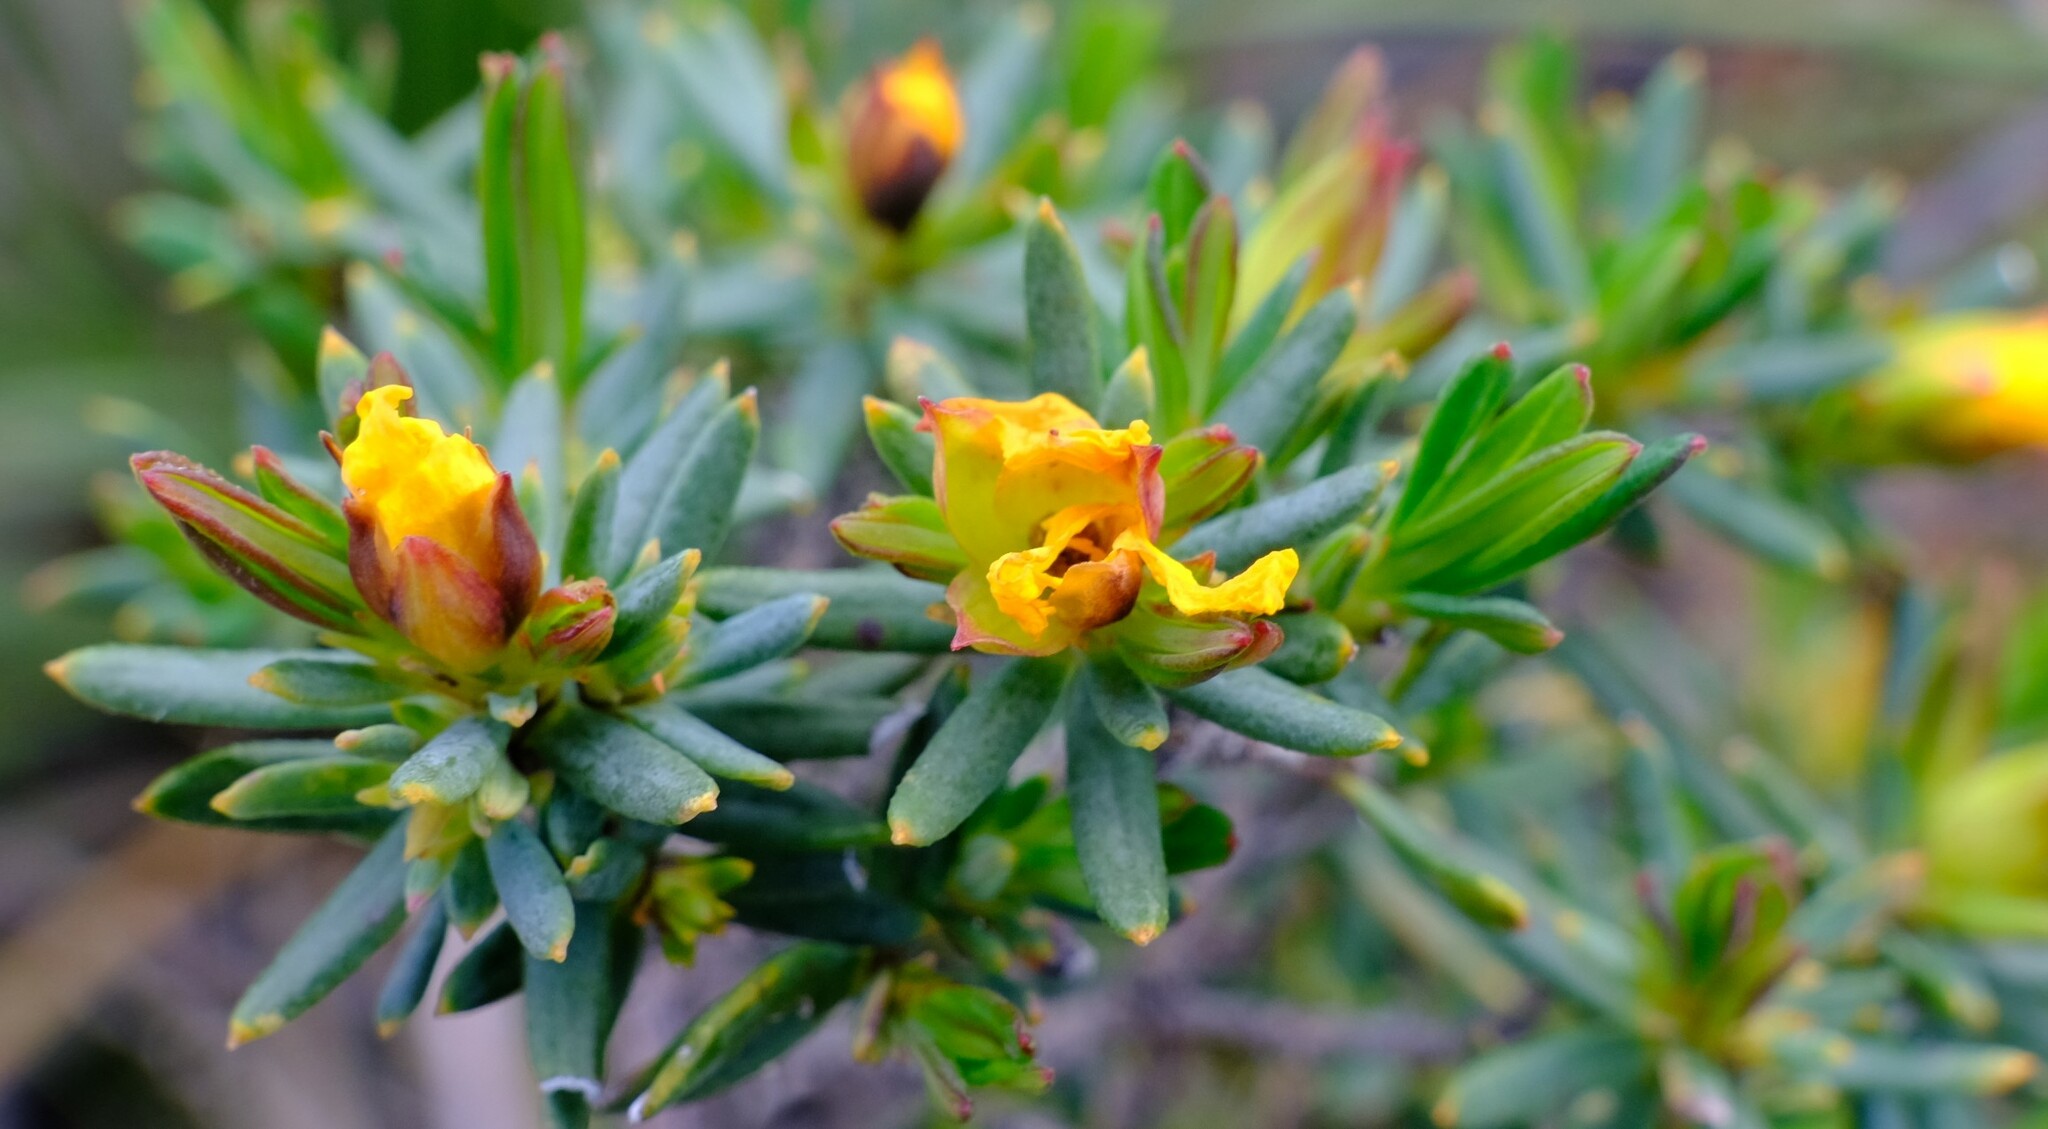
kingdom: Plantae
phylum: Tracheophyta
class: Magnoliopsida
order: Dilleniales
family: Dilleniaceae
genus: Hibbertia
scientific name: Hibbertia crassifolia
